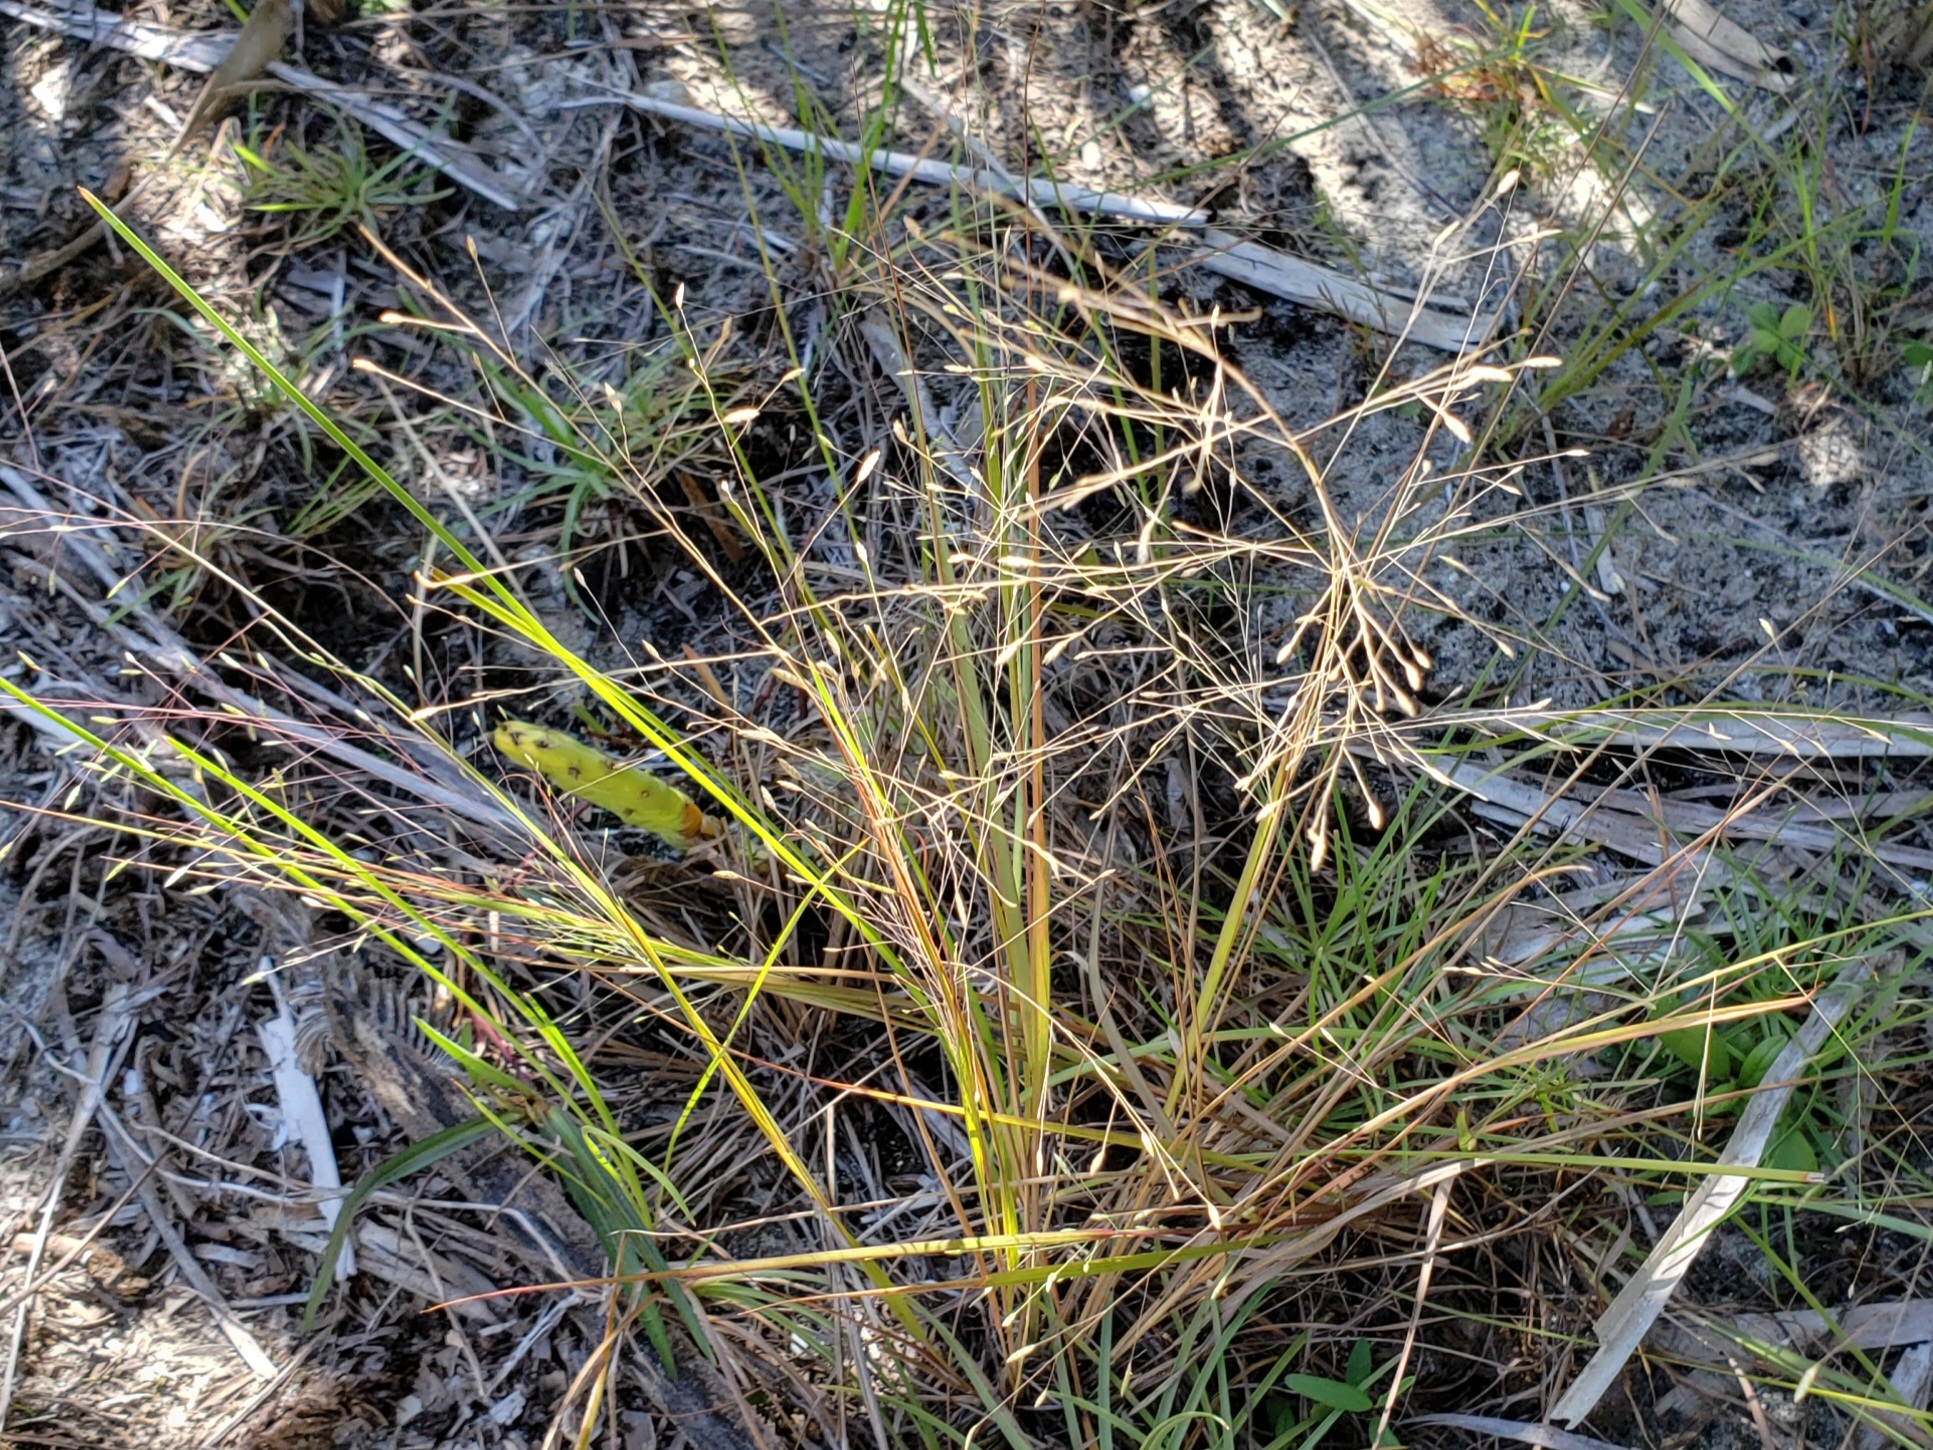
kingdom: Plantae
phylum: Tracheophyta
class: Liliopsida
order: Poales
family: Poaceae
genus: Eragrostis
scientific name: Eragrostis elliottii
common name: Elliott's love grass
